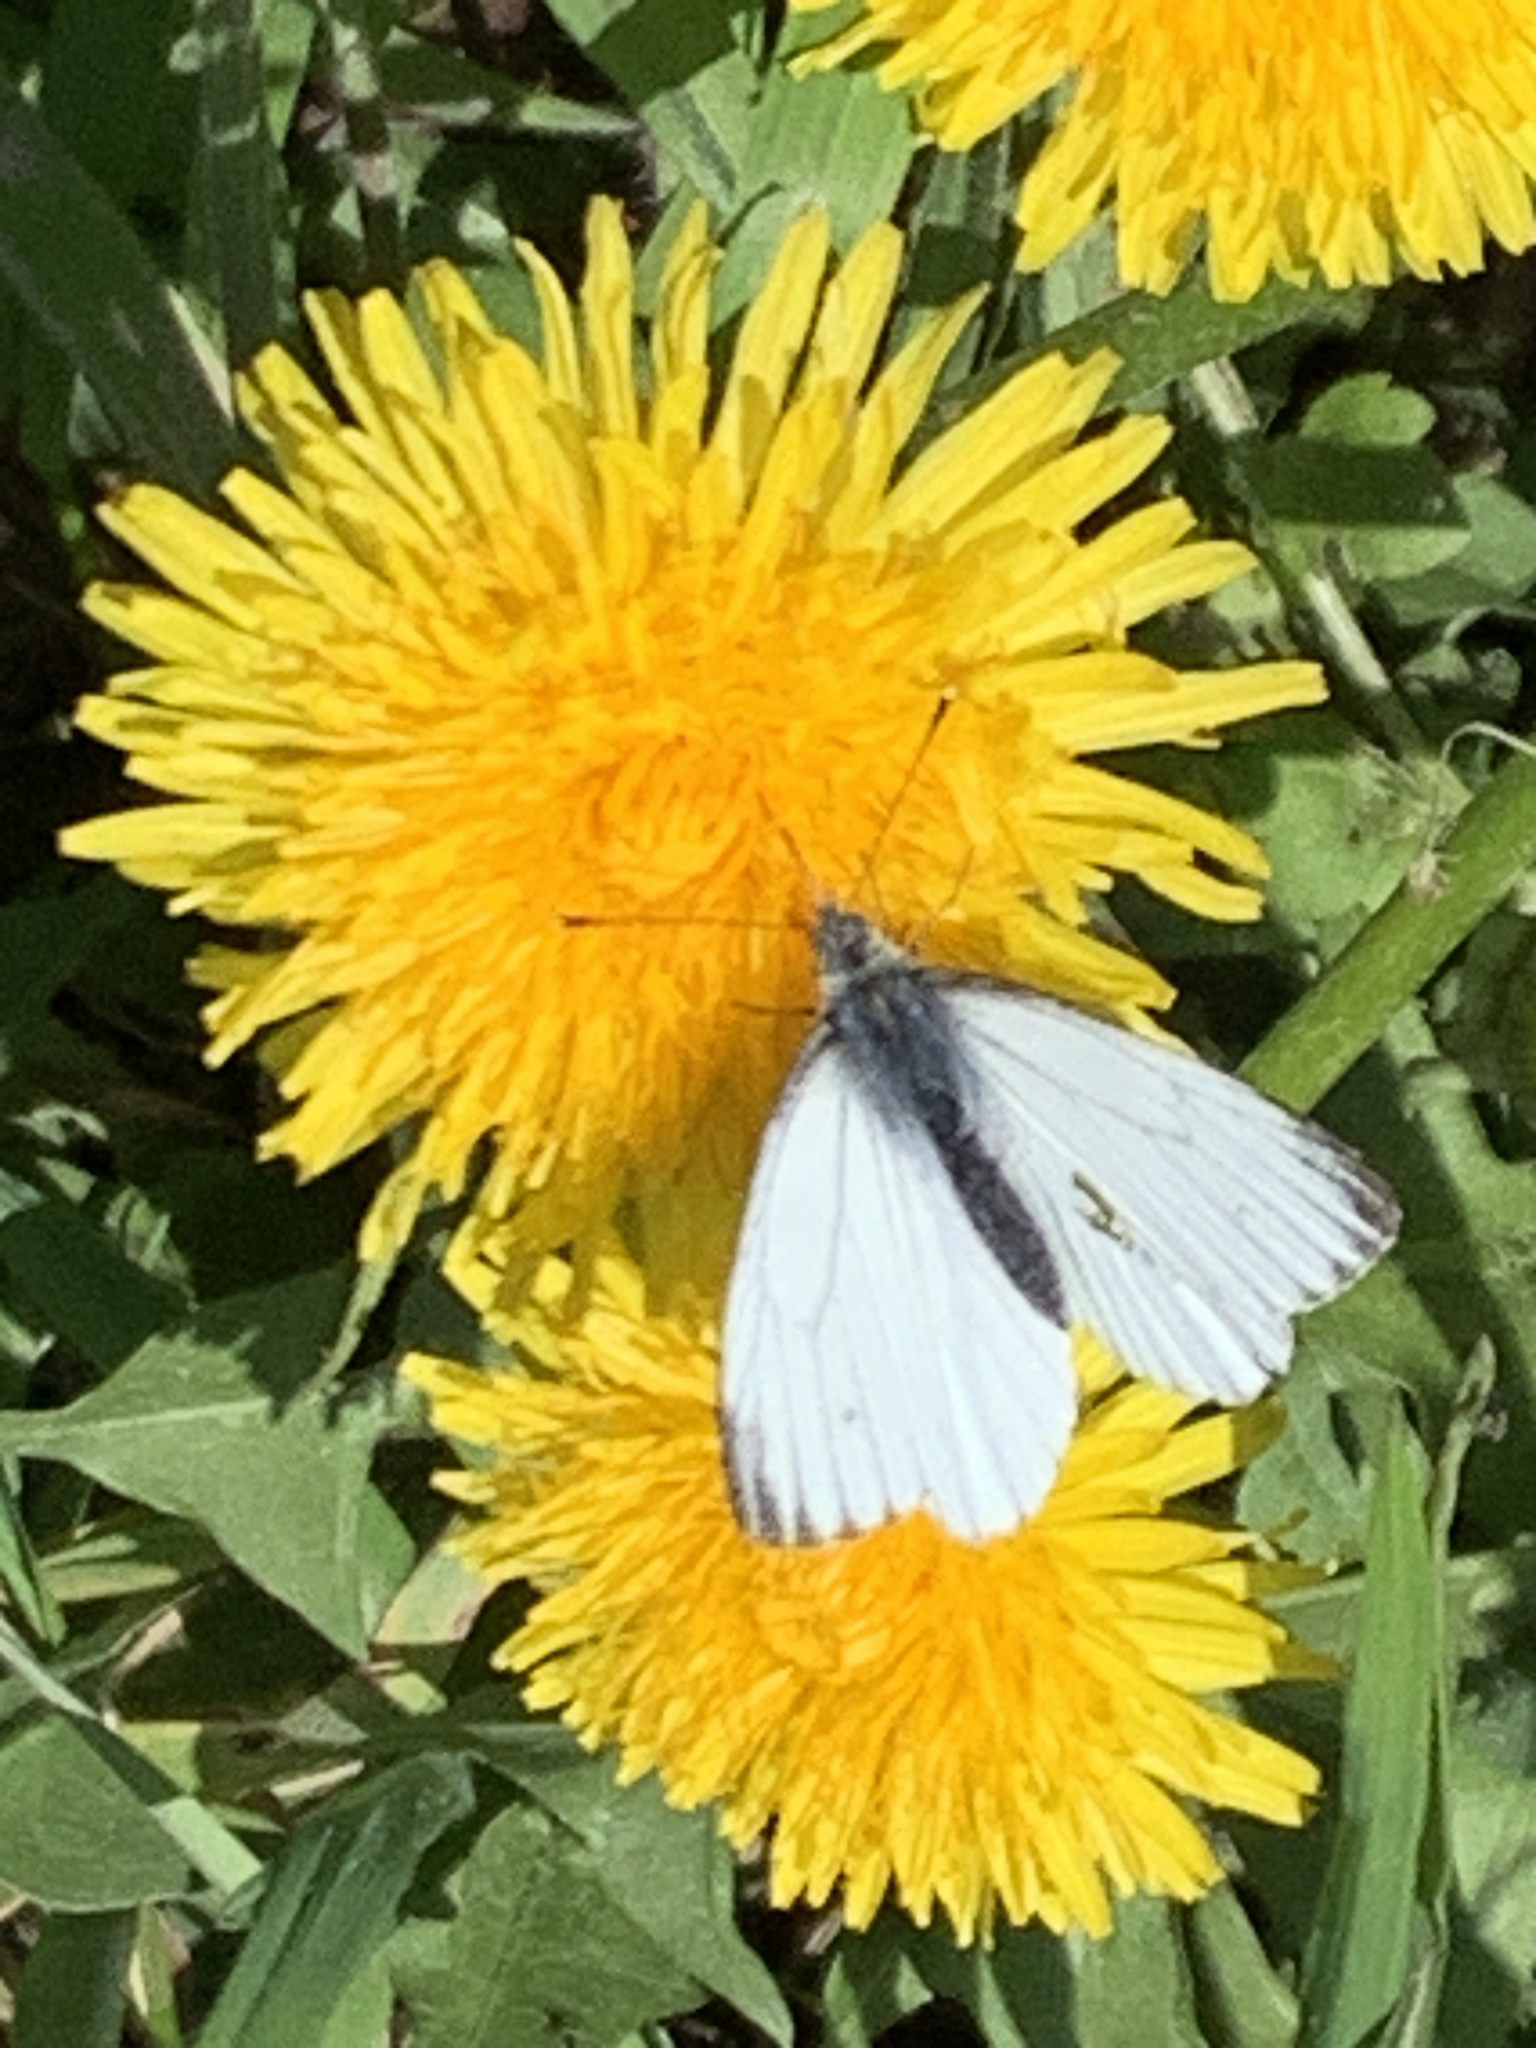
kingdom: Animalia
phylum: Arthropoda
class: Insecta
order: Lepidoptera
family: Pieridae
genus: Pieris
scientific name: Pieris napi
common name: Green-veined white
